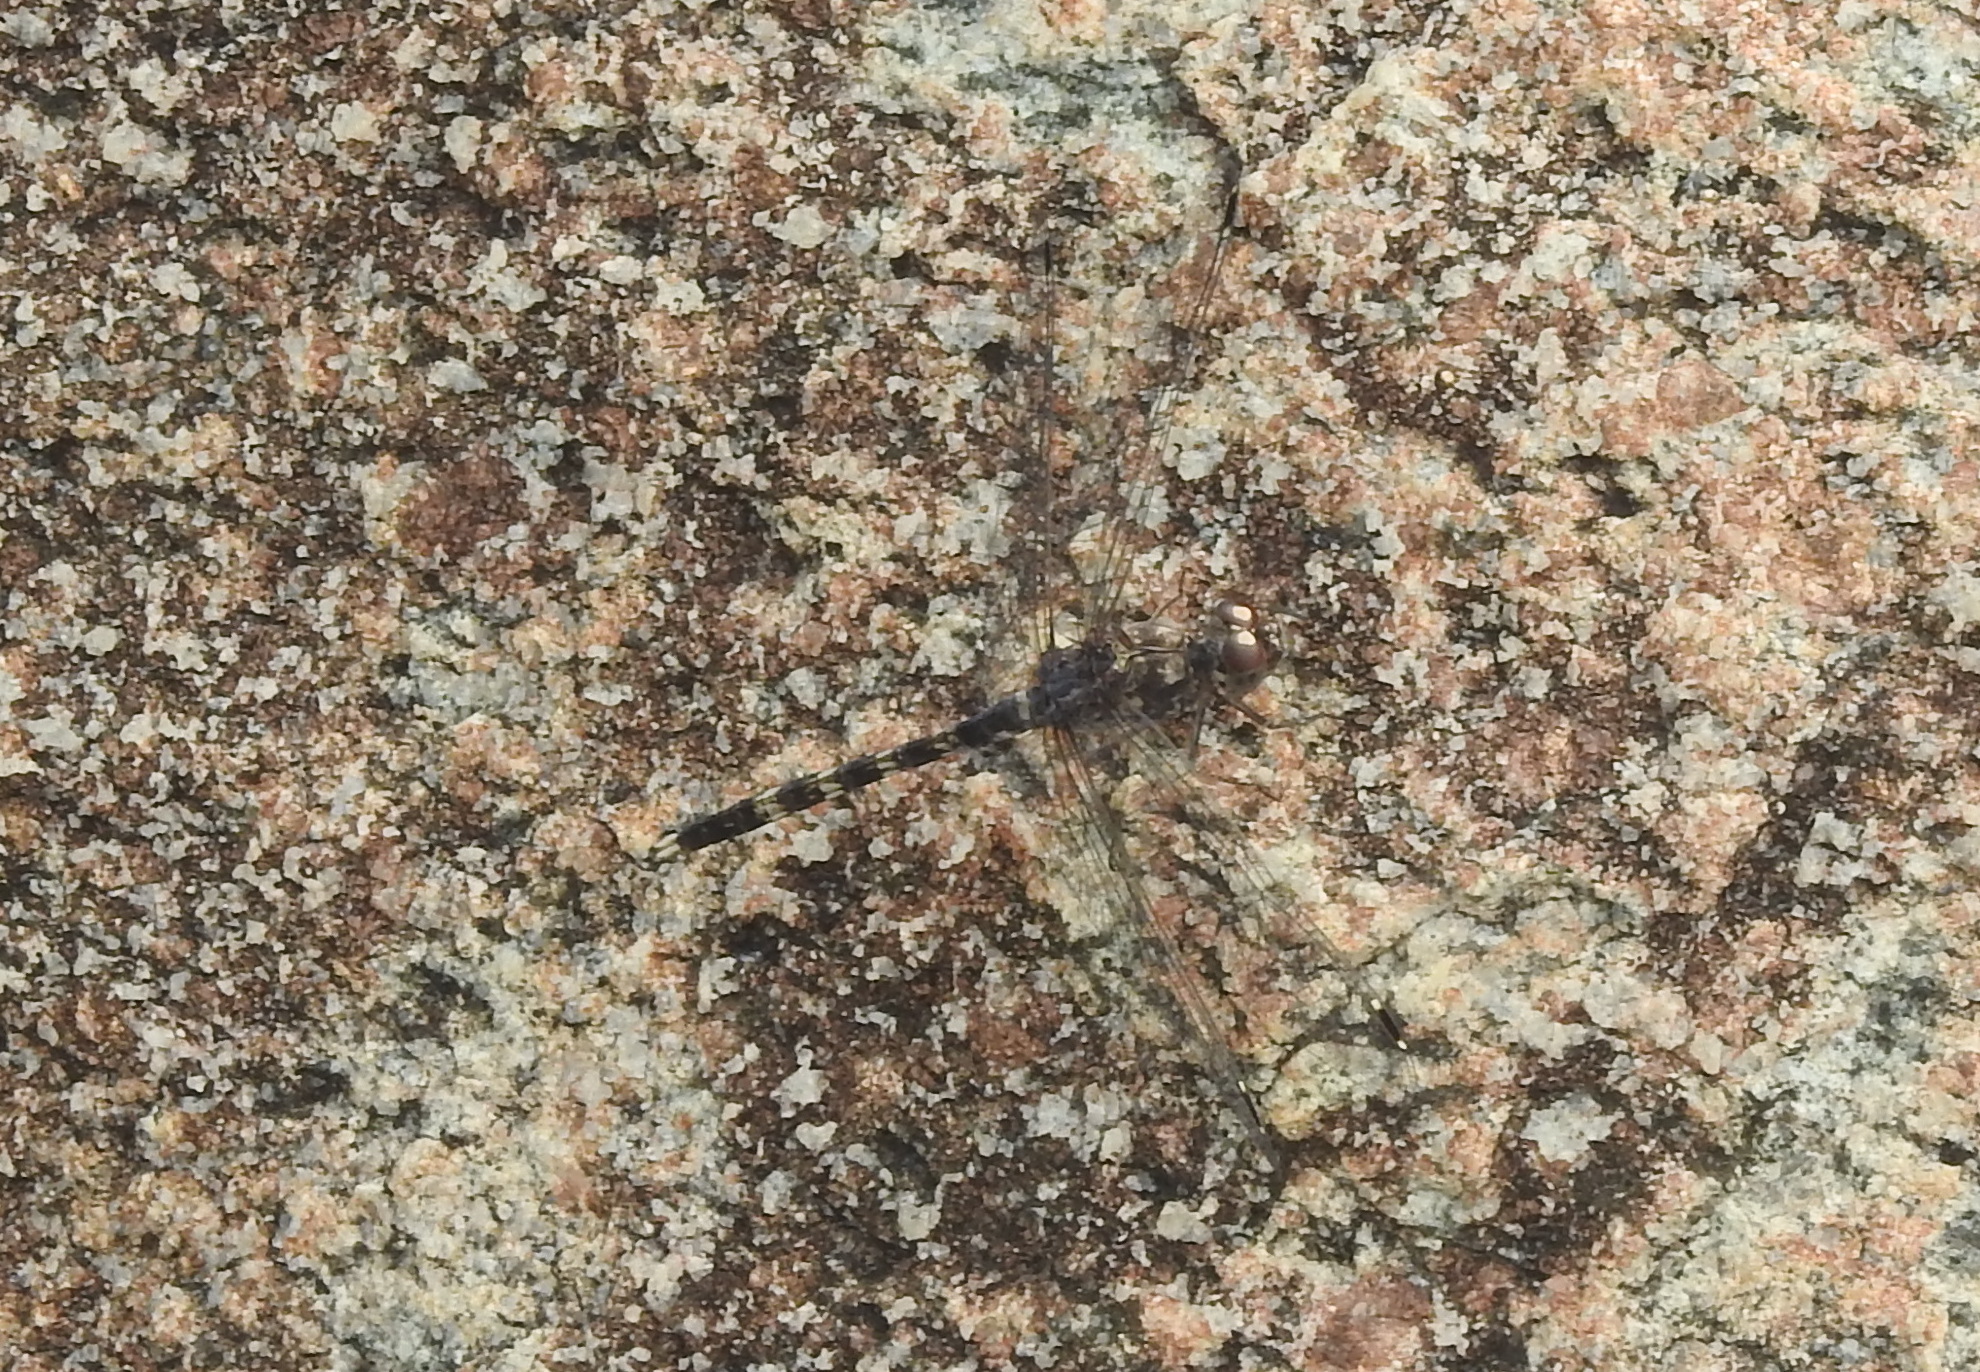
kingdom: Animalia
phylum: Arthropoda
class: Insecta
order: Odonata
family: Libellulidae
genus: Bradinopyga
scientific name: Bradinopyga geminata
